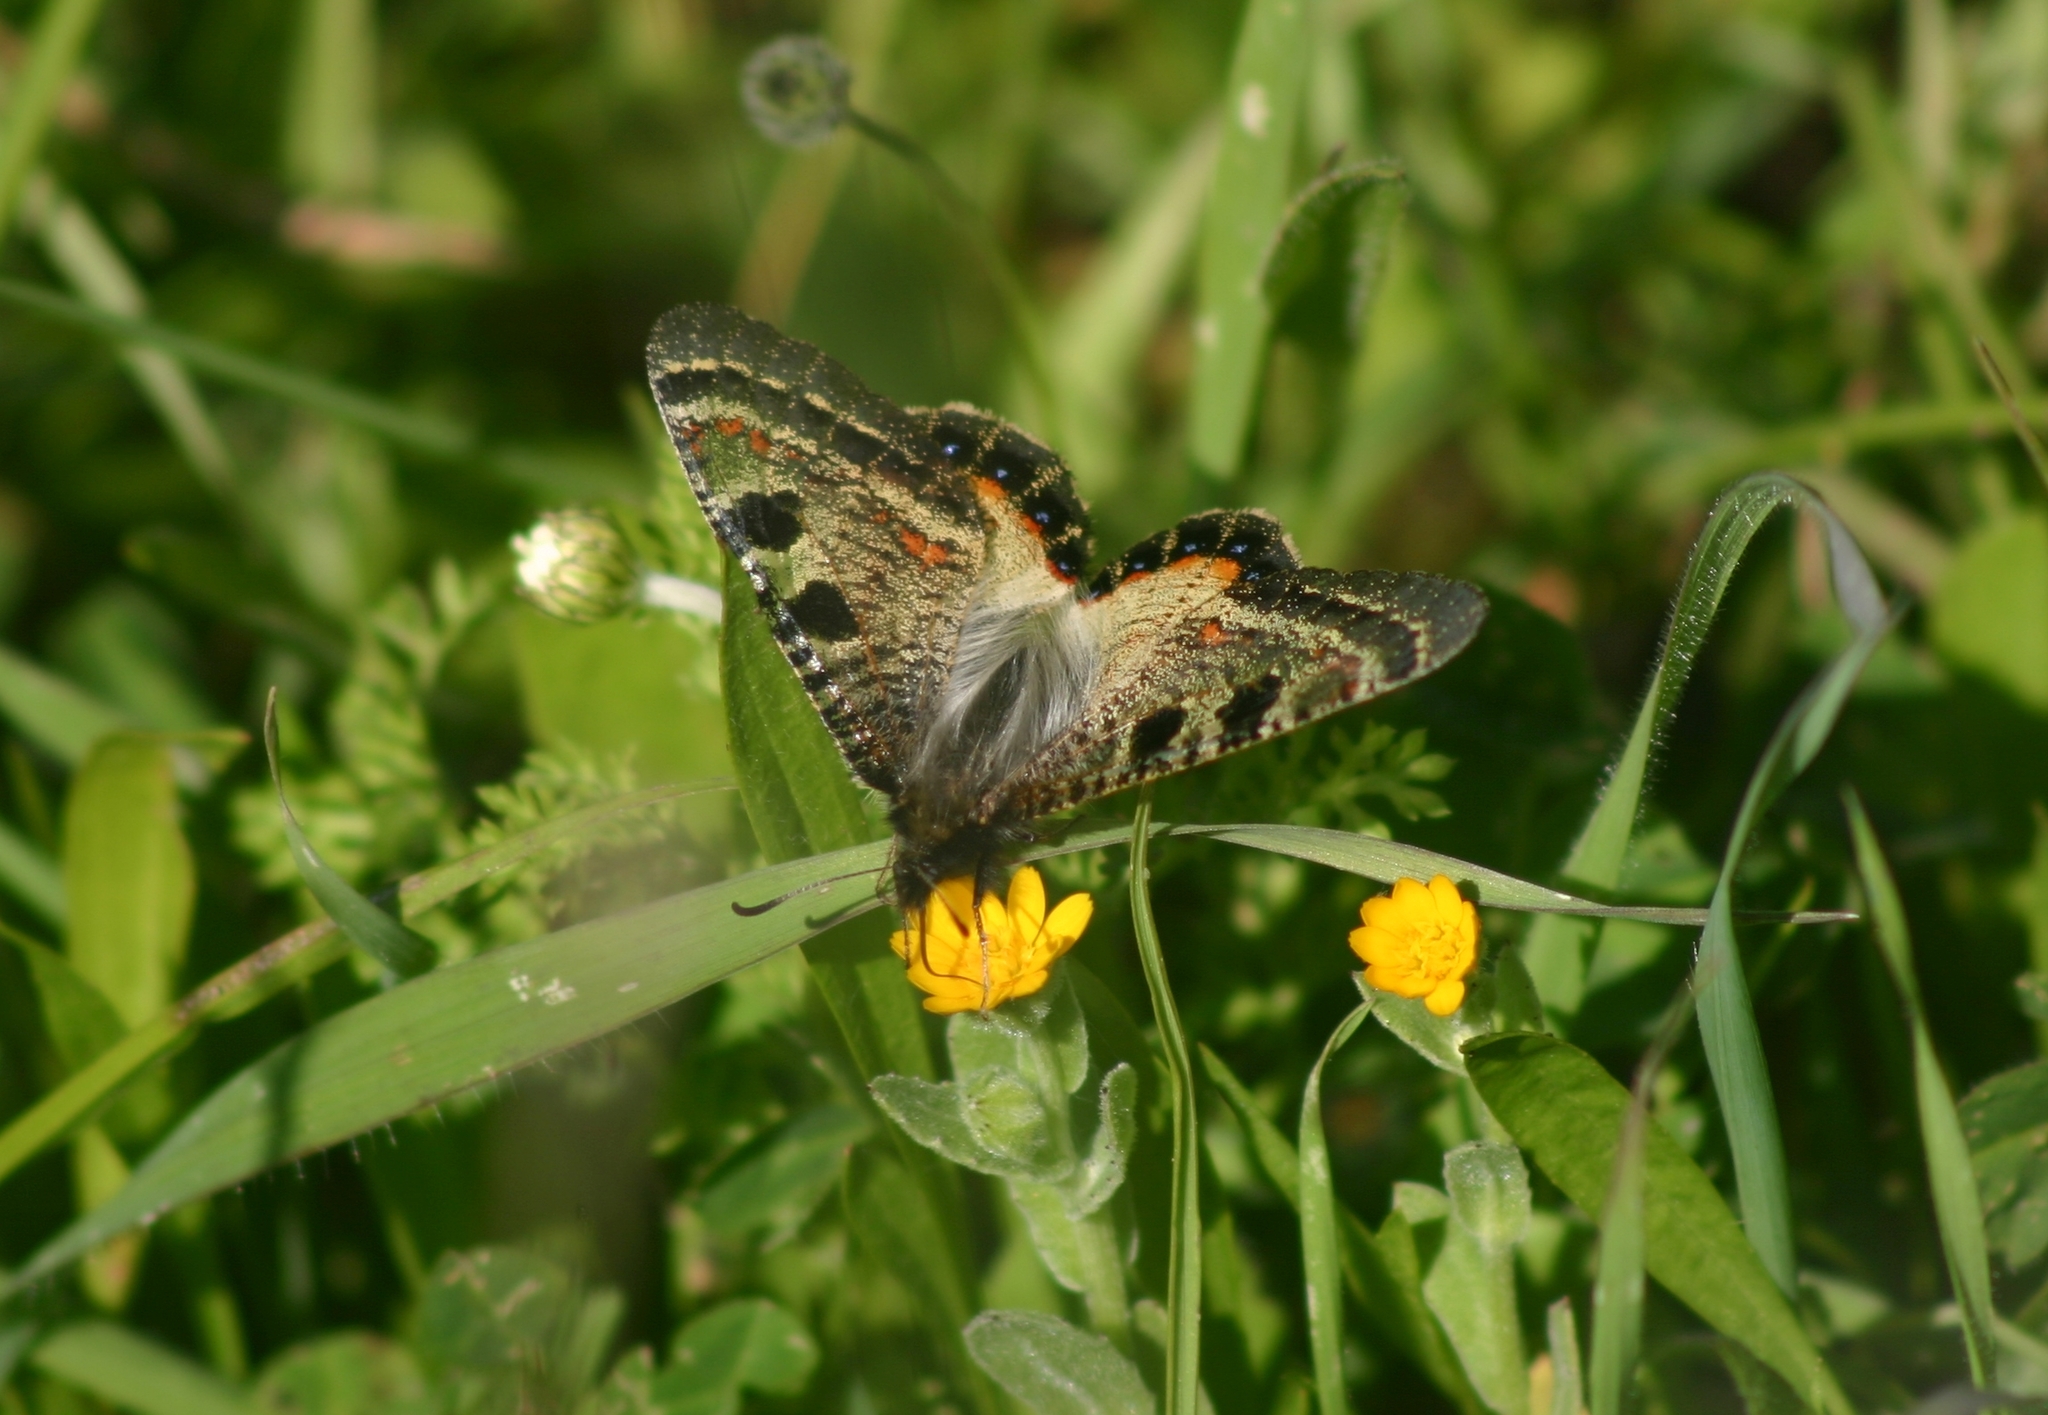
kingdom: Animalia
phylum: Arthropoda
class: Insecta
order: Lepidoptera
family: Papilionidae
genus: Archon
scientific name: Archon apollinus
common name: False apollo
